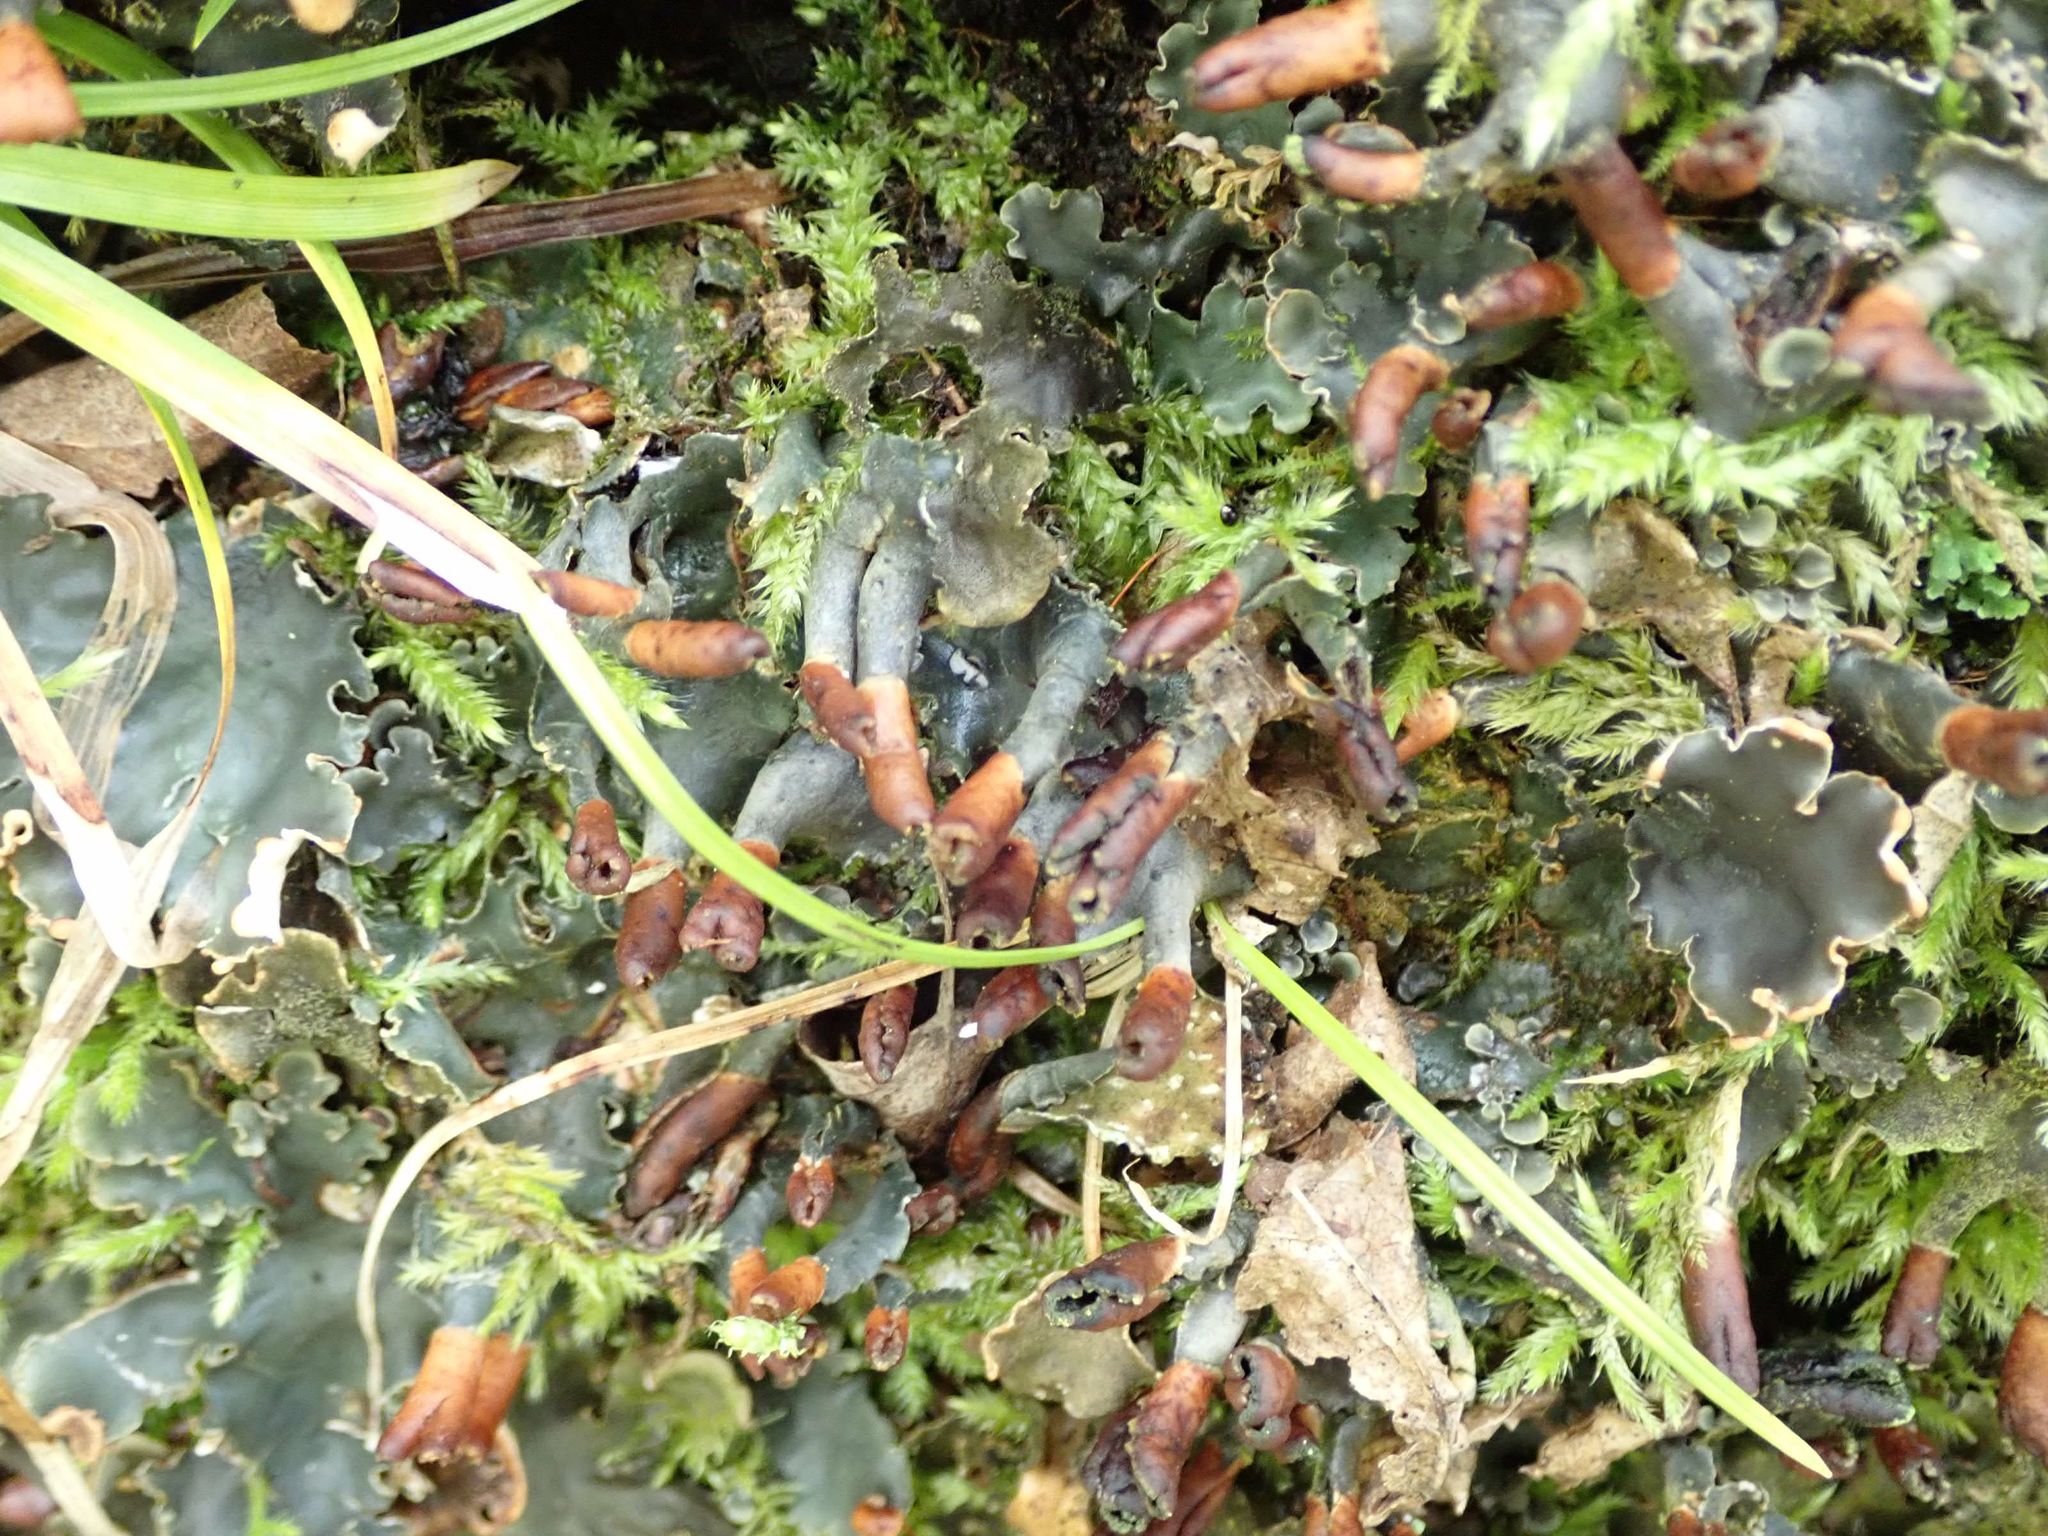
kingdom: Fungi
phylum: Ascomycota
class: Lecanoromycetes
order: Peltigerales
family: Peltigeraceae
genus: Peltigera
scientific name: Peltigera canina
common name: Dog pelt lichen
